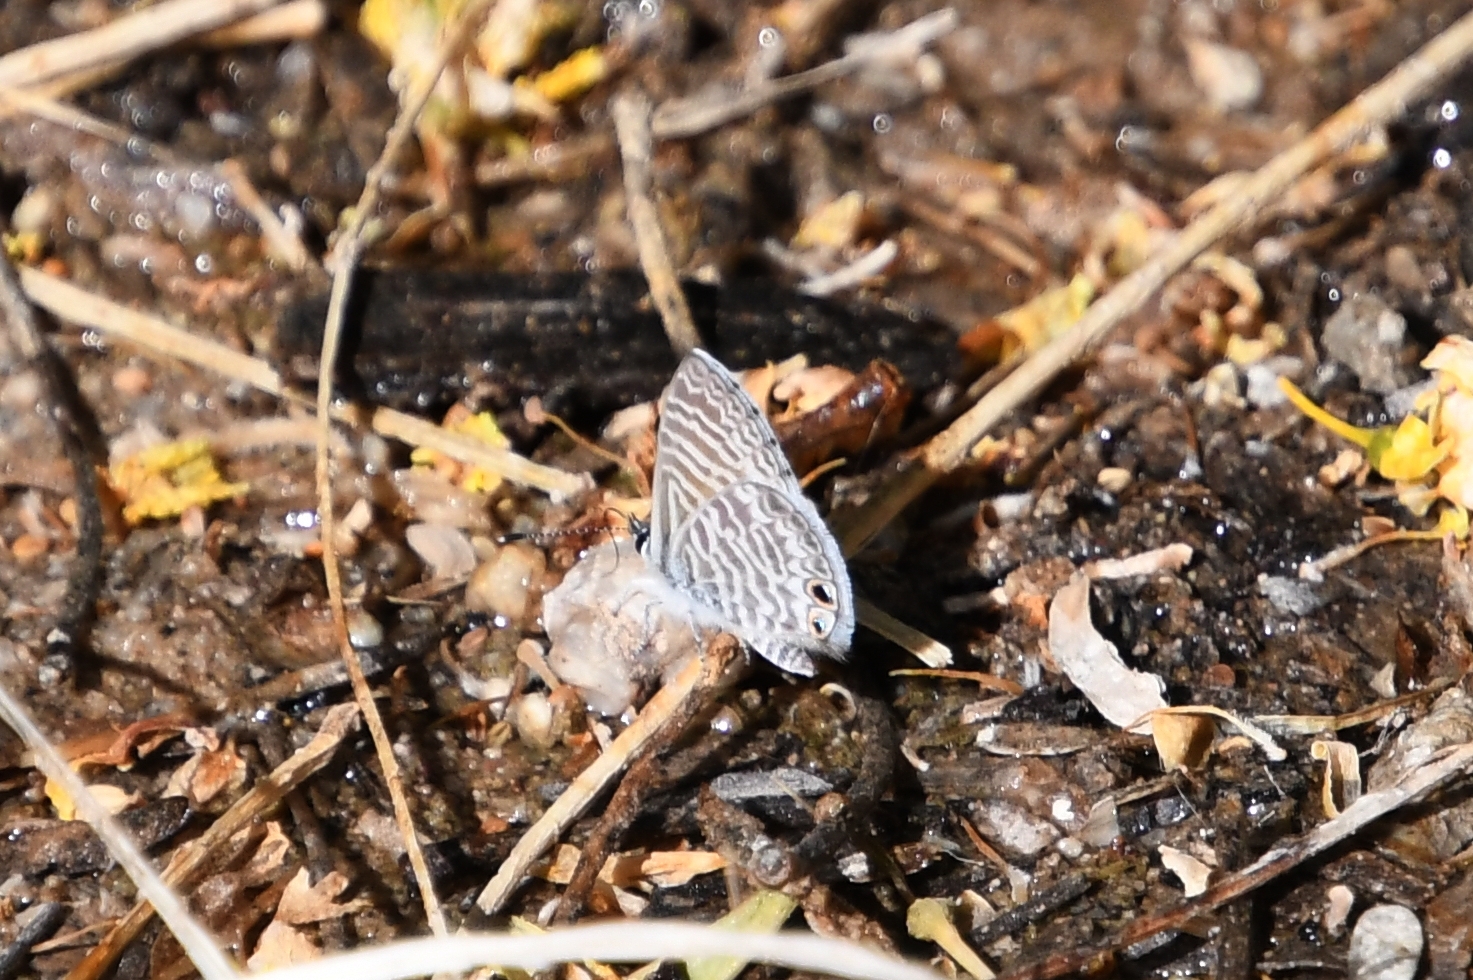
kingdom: Animalia
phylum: Arthropoda
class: Insecta
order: Lepidoptera
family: Lycaenidae
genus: Leptotes
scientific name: Leptotes marina
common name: Marine blue
